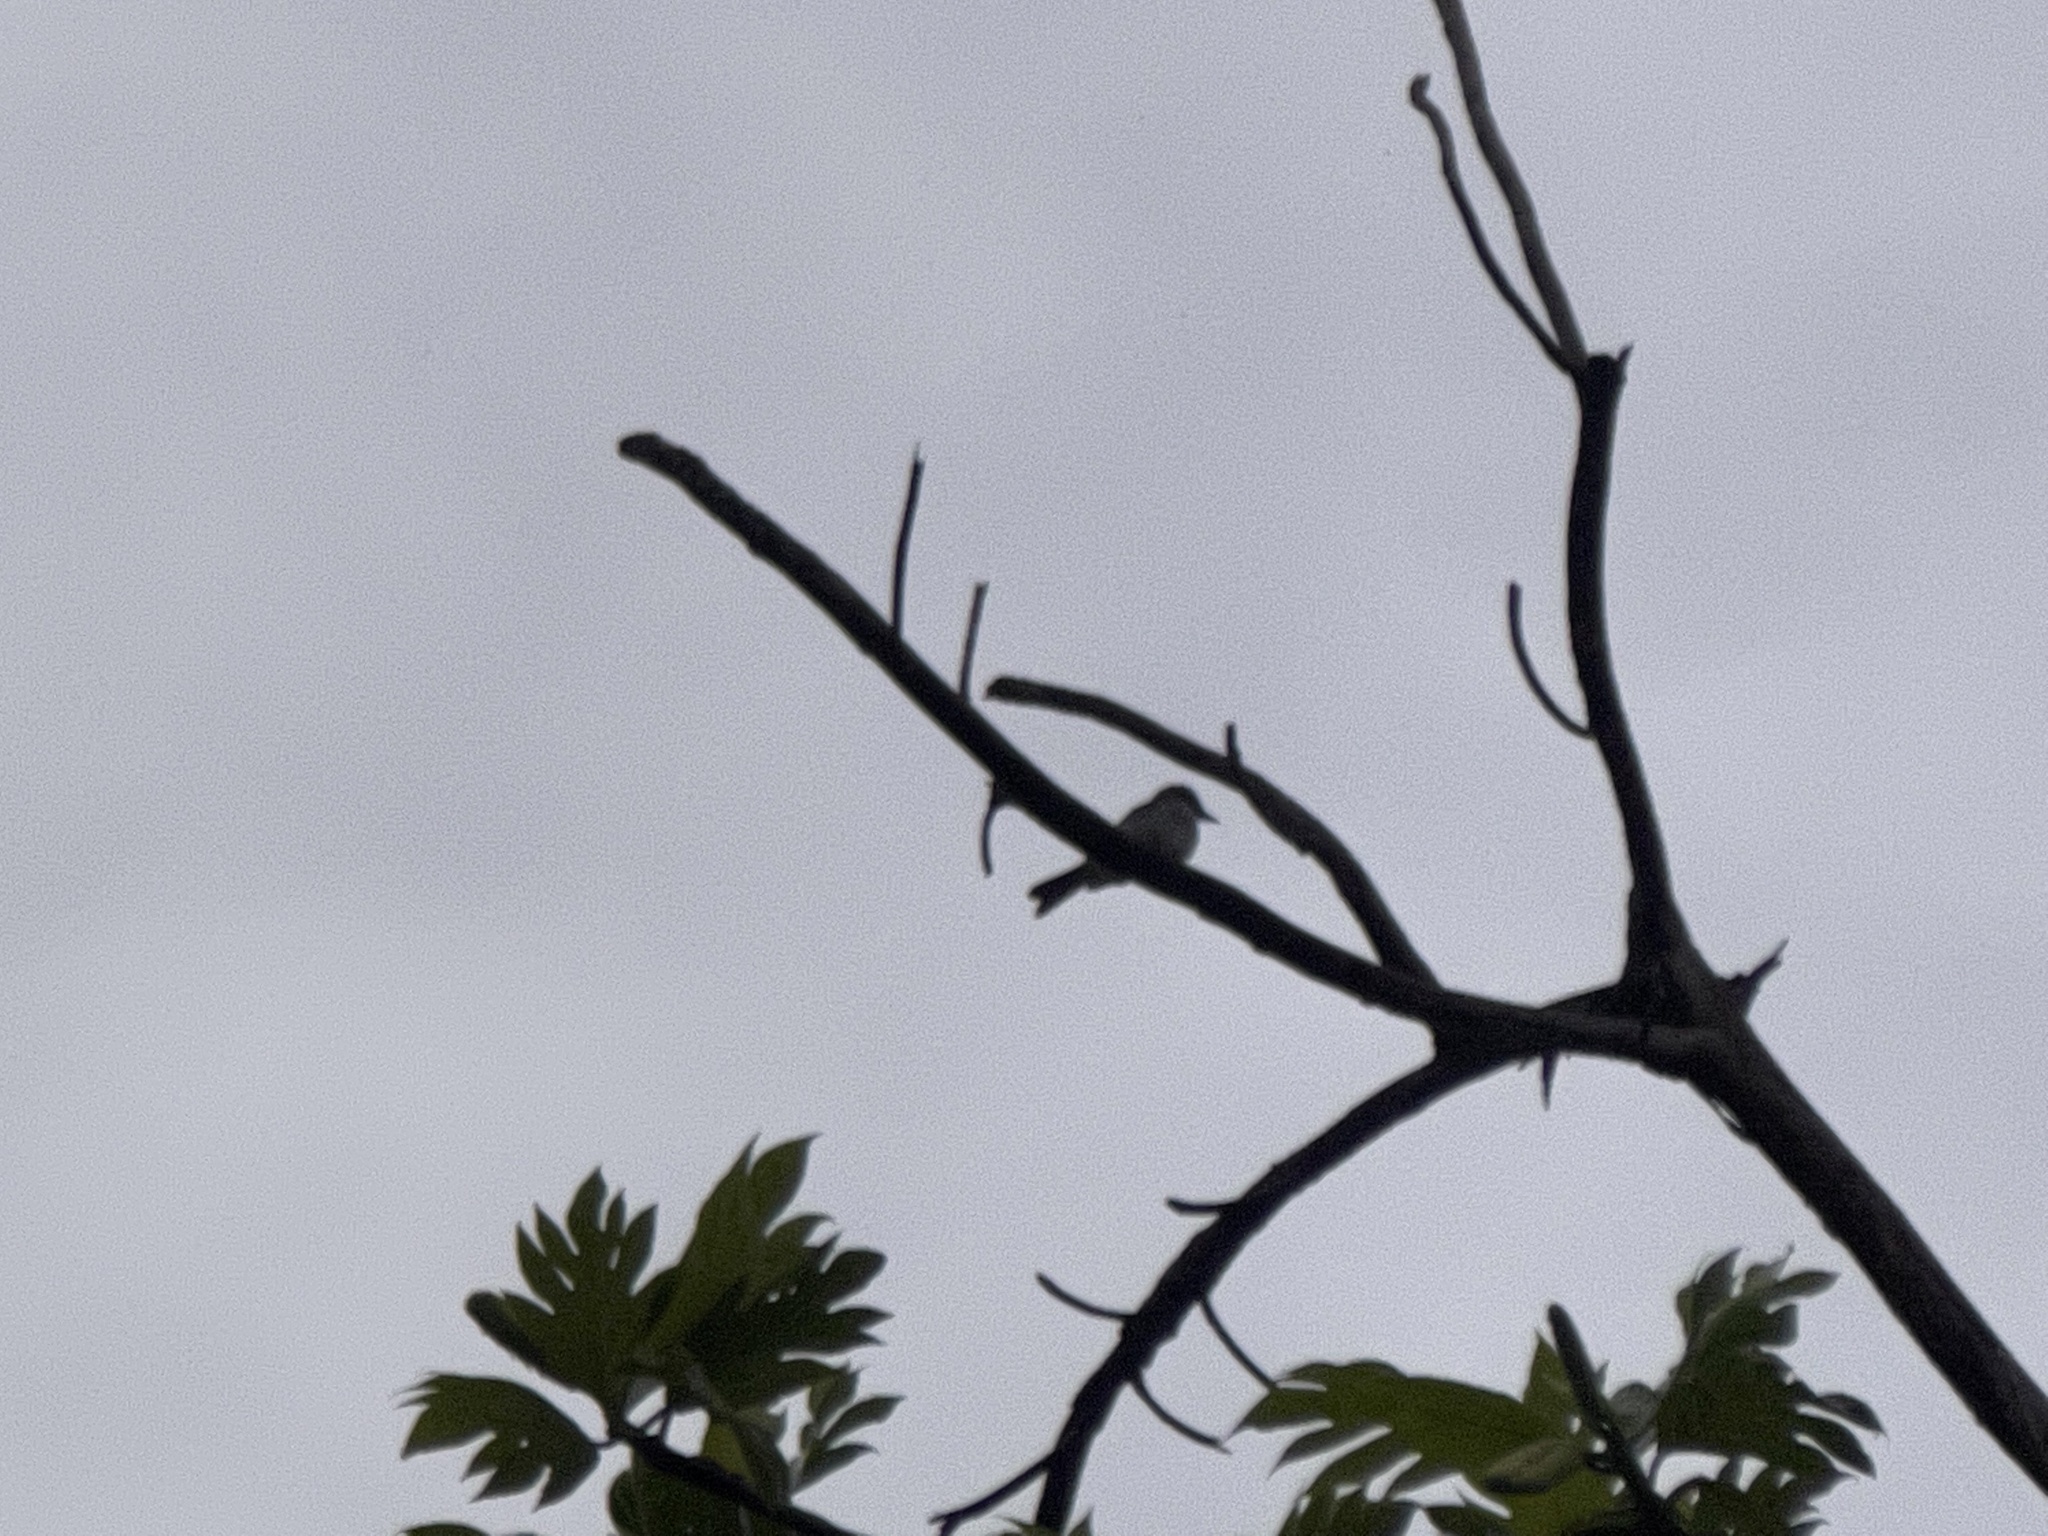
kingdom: Animalia
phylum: Chordata
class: Aves
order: Passeriformes
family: Tyrannidae
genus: Tyrannus
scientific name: Tyrannus dominicensis
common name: Gray kingbird
